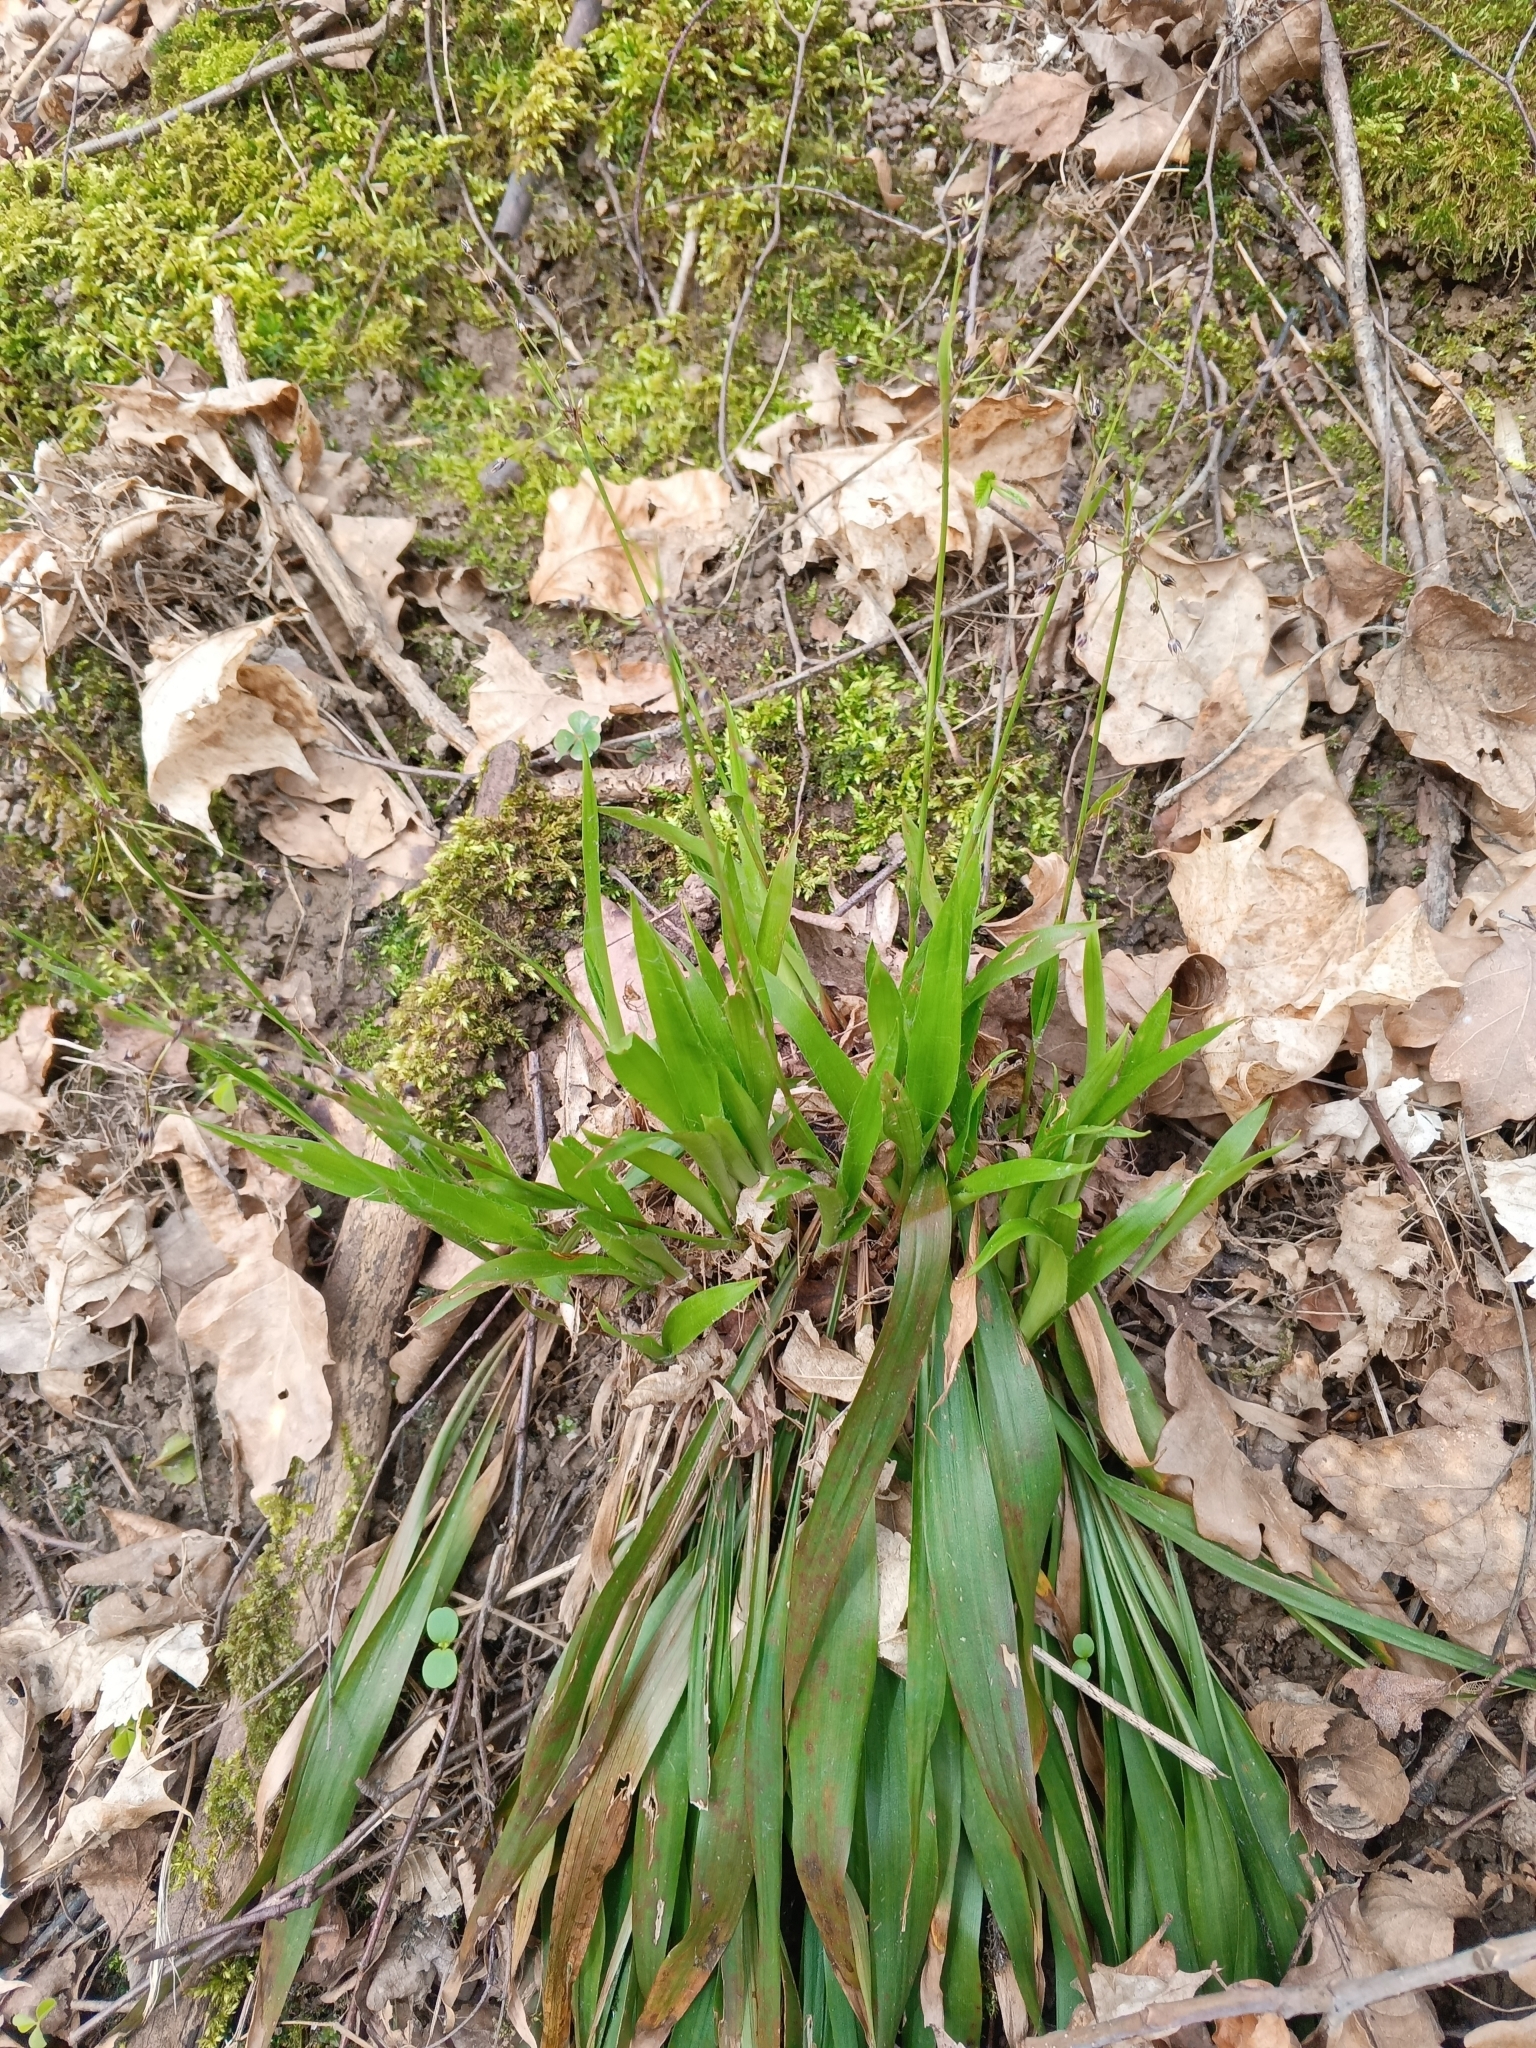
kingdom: Plantae
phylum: Tracheophyta
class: Liliopsida
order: Poales
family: Juncaceae
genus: Luzula
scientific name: Luzula pilosa
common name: Hairy wood-rush
